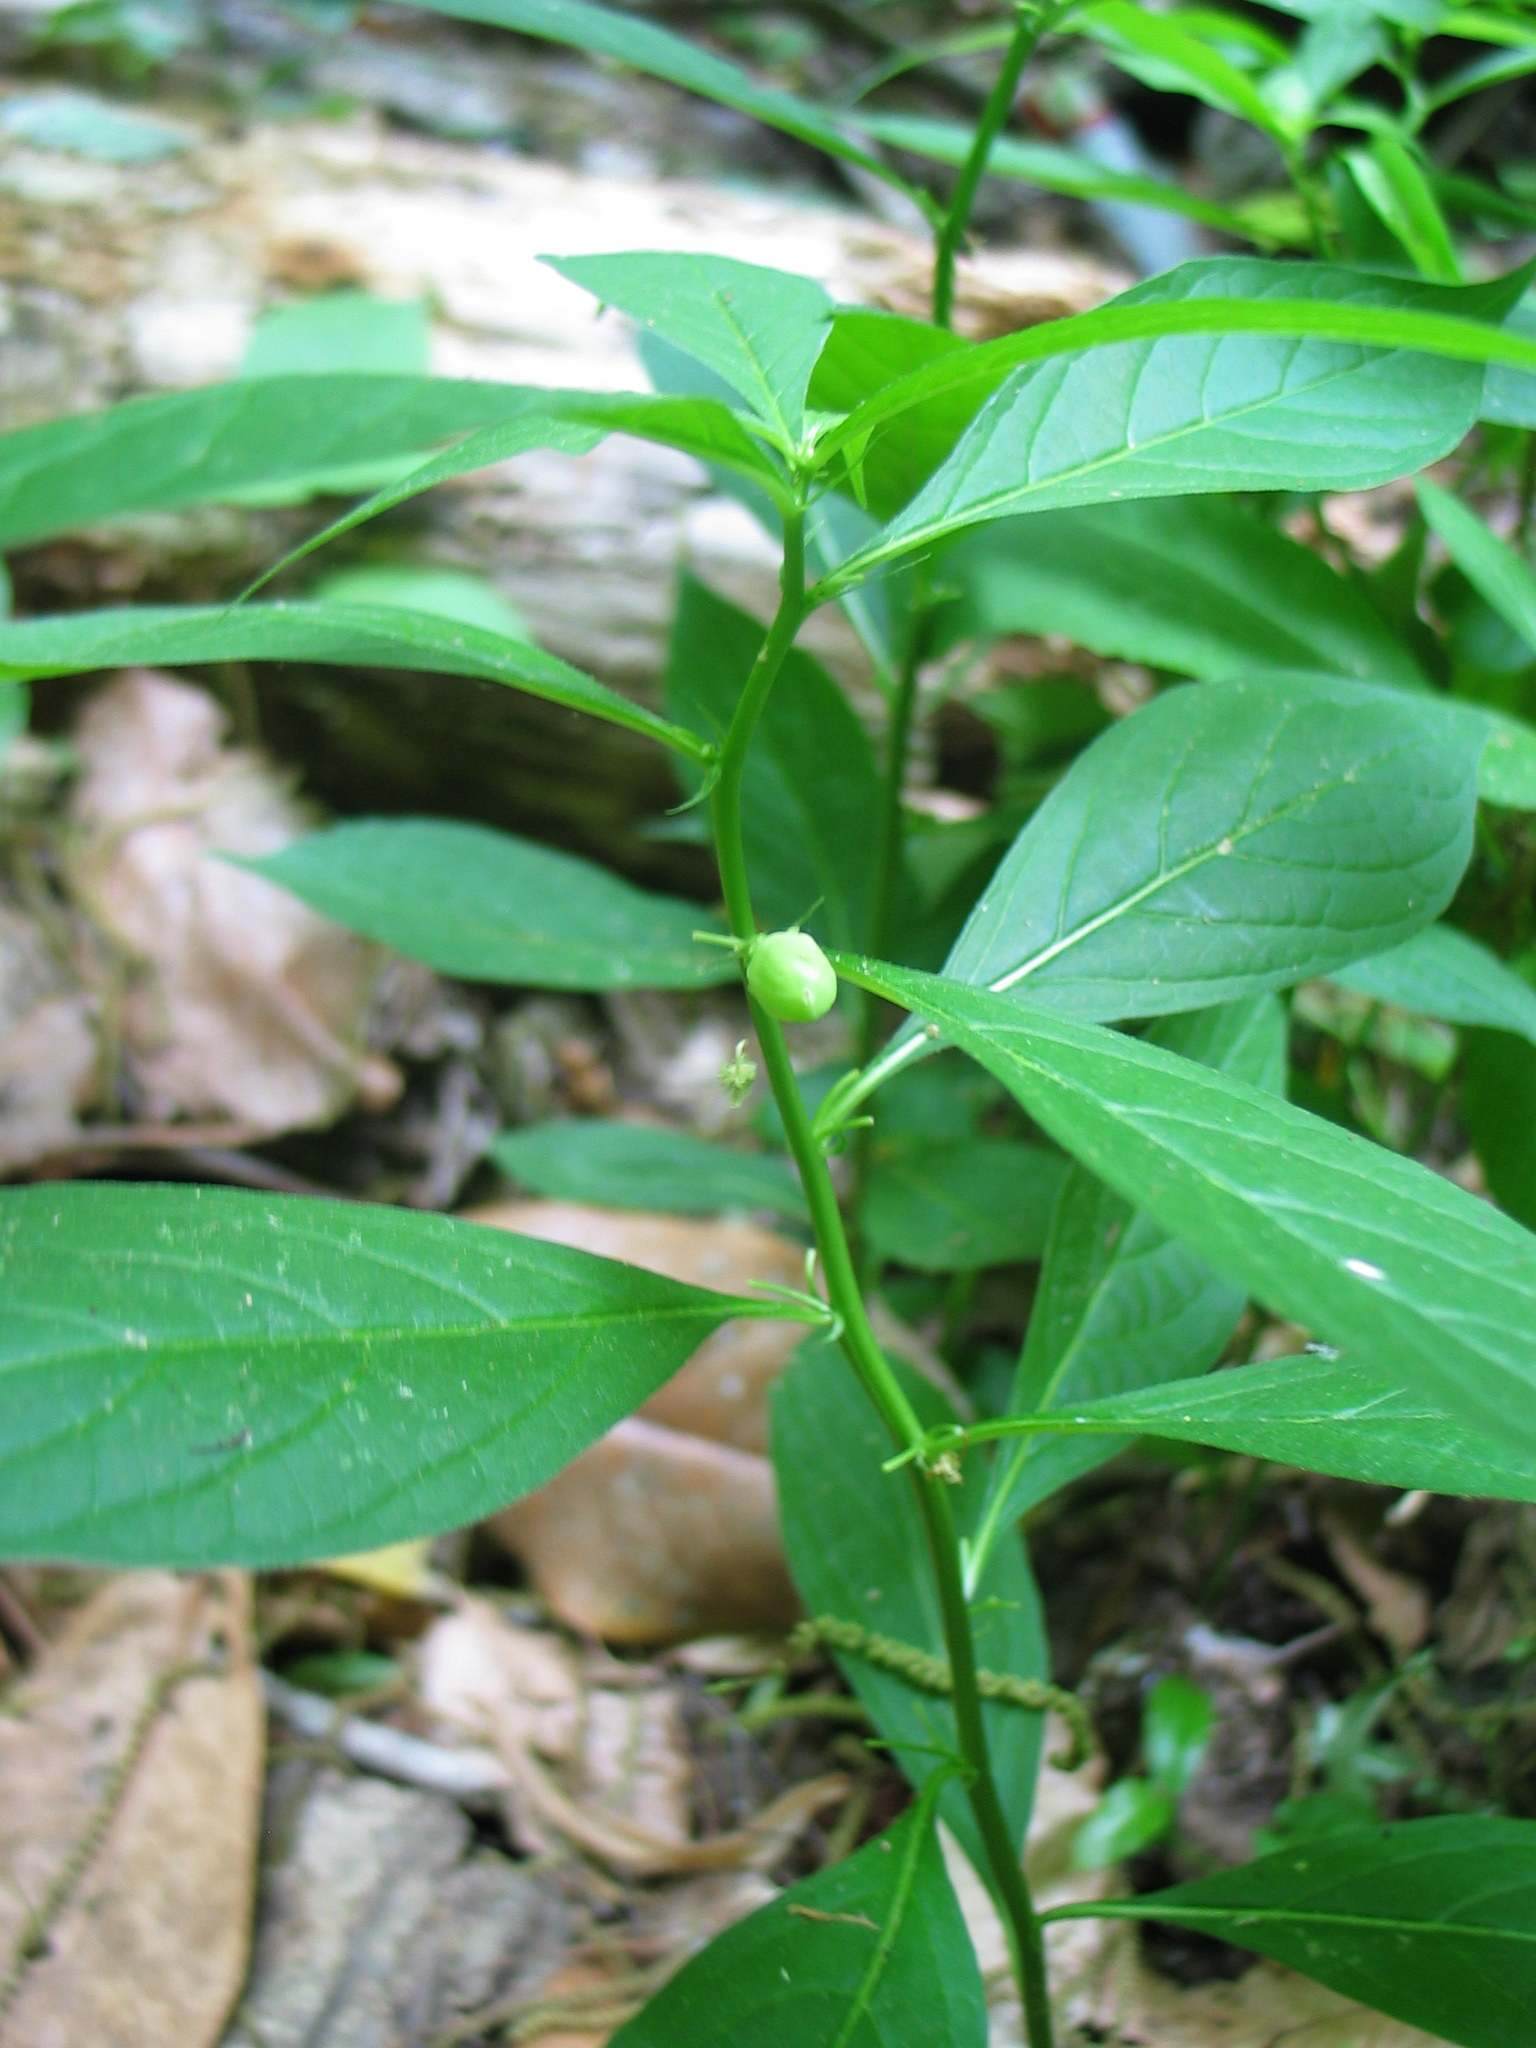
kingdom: Plantae
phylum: Tracheophyta
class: Magnoliopsida
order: Malpighiales
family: Violaceae
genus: Cubelium
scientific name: Cubelium concolor
